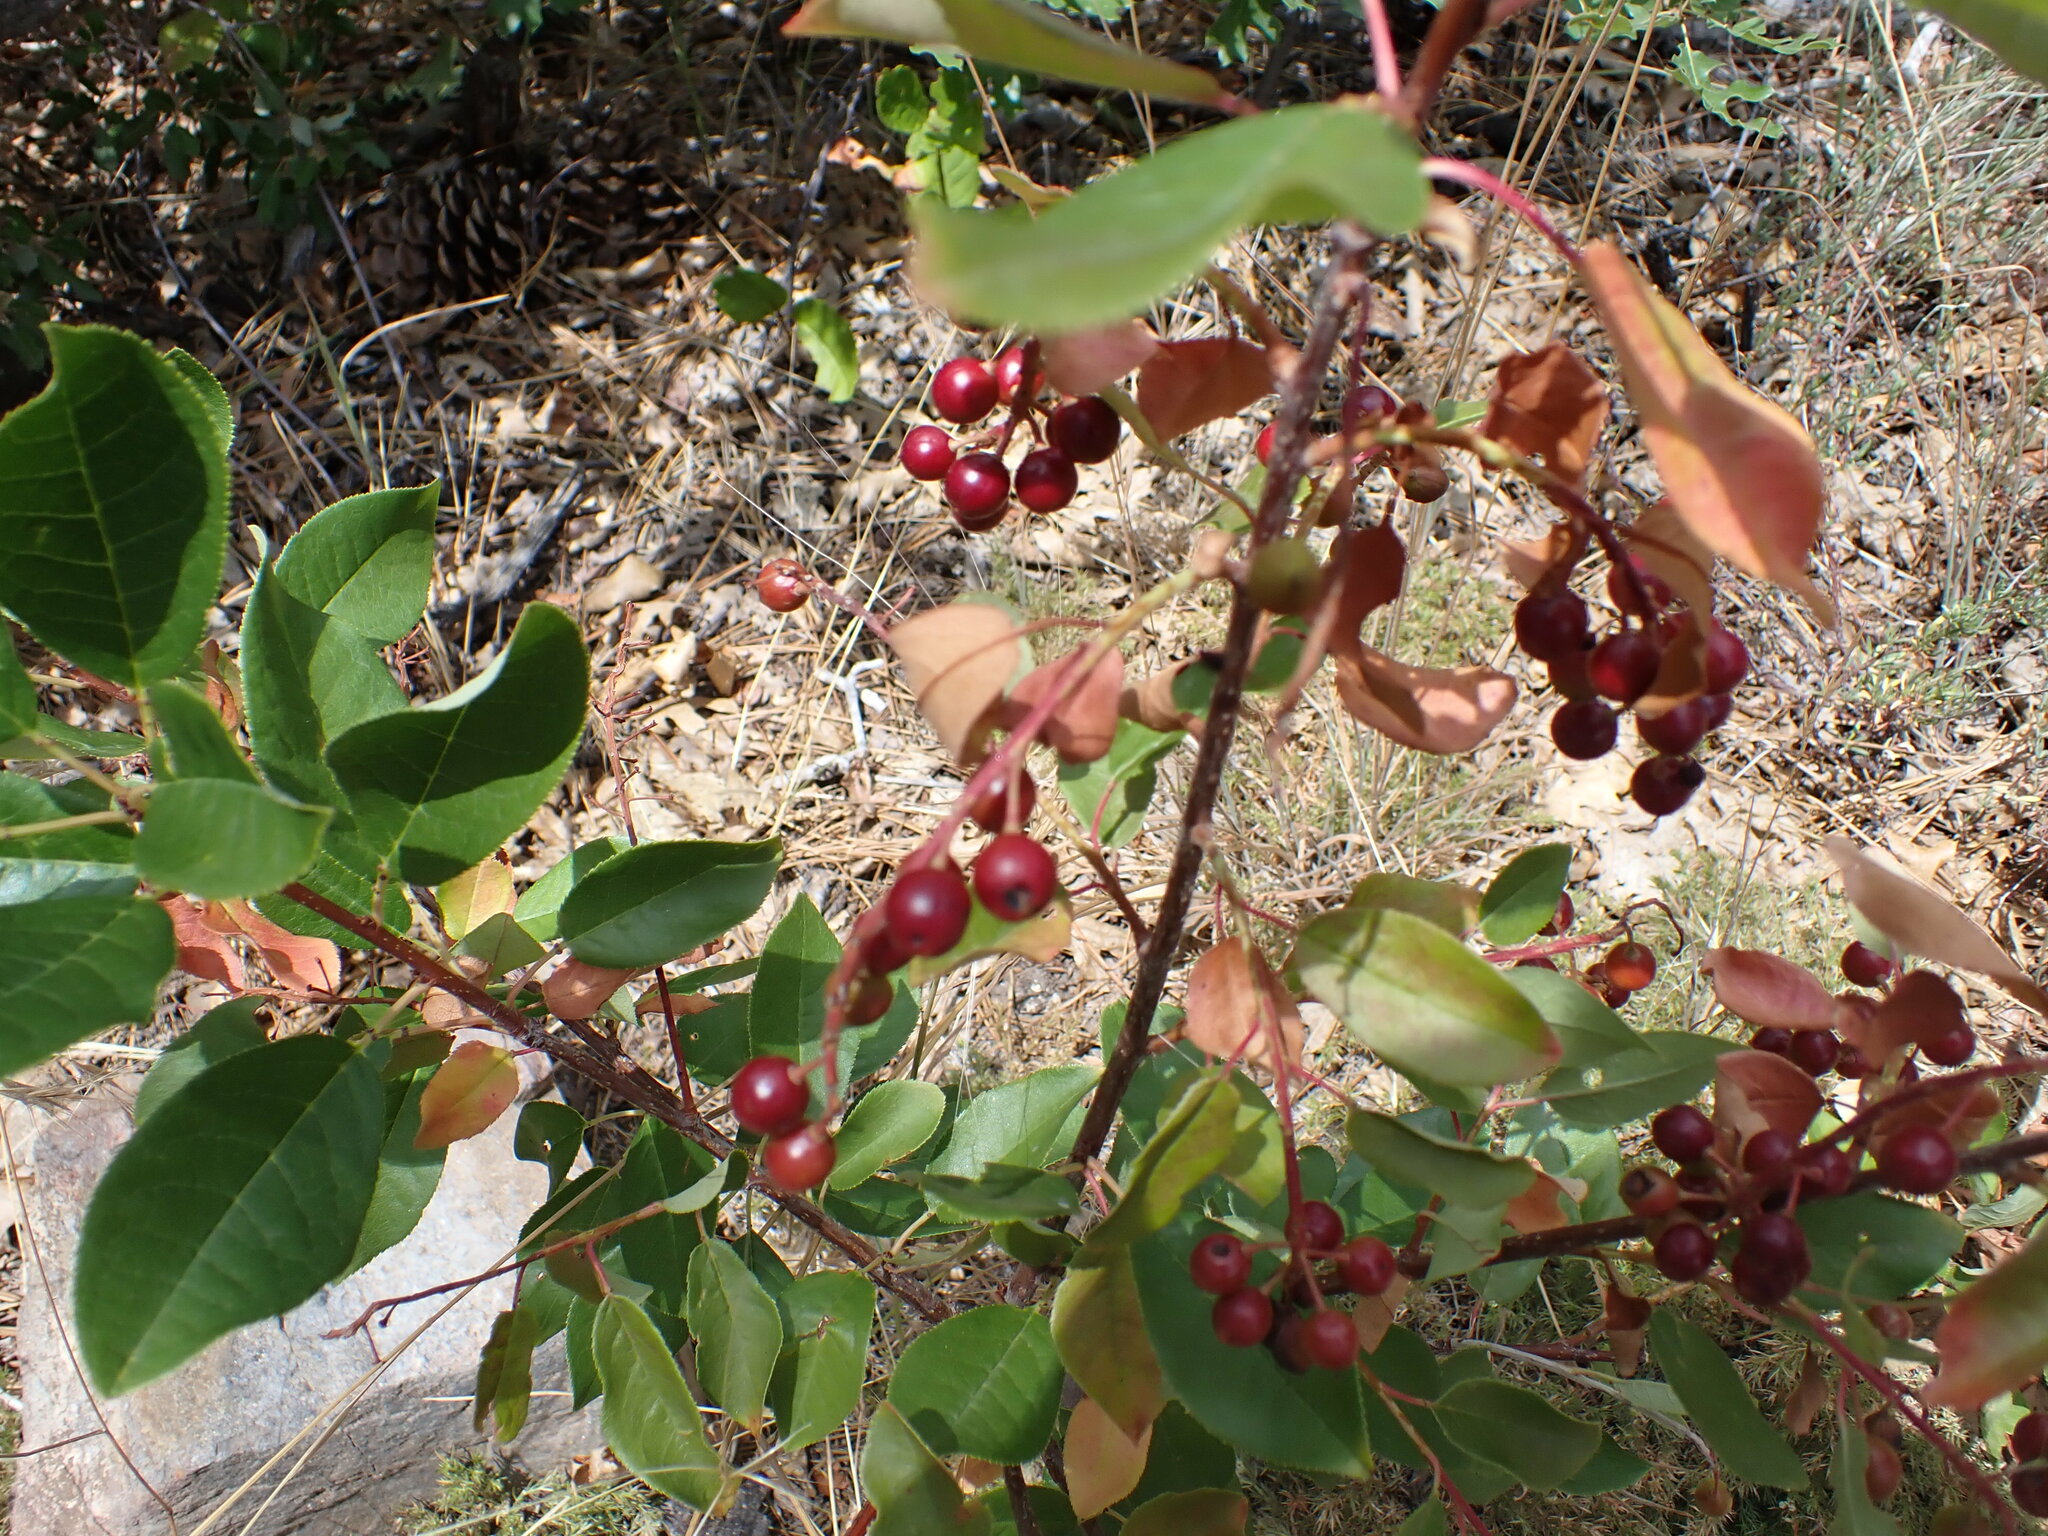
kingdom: Plantae
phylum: Tracheophyta
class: Magnoliopsida
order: Rosales
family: Rosaceae
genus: Prunus
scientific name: Prunus virginiana
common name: Chokecherry
